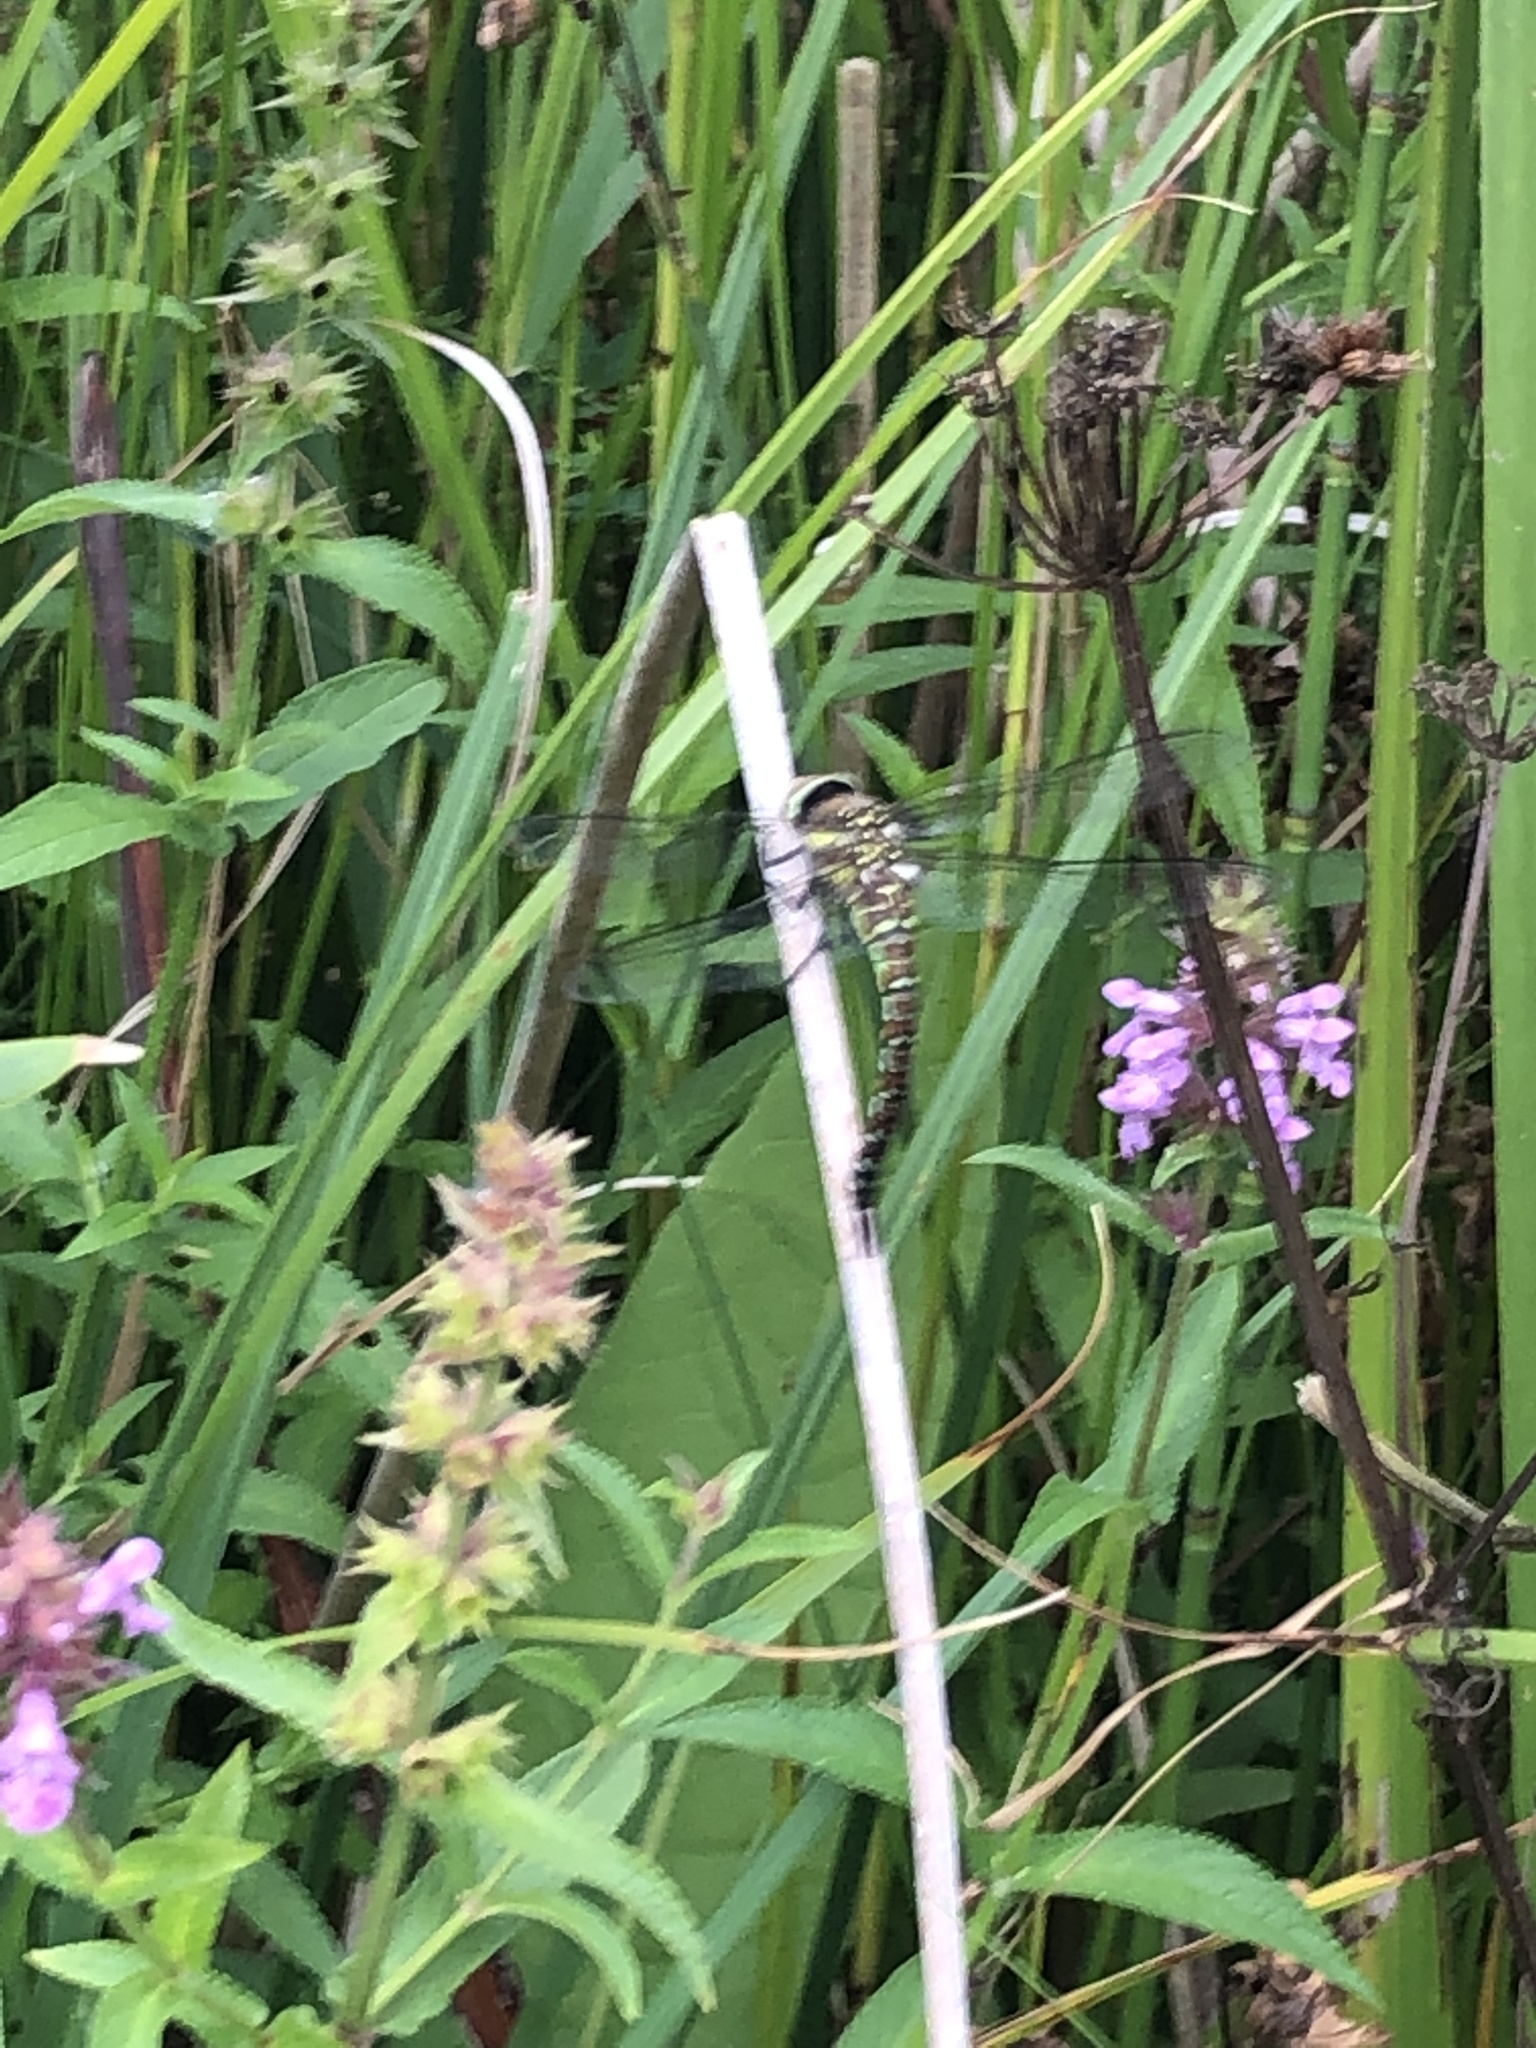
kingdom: Animalia
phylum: Arthropoda
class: Insecta
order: Odonata
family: Aeshnidae
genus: Aeshna
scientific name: Aeshna mixta
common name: Migrant hawker
